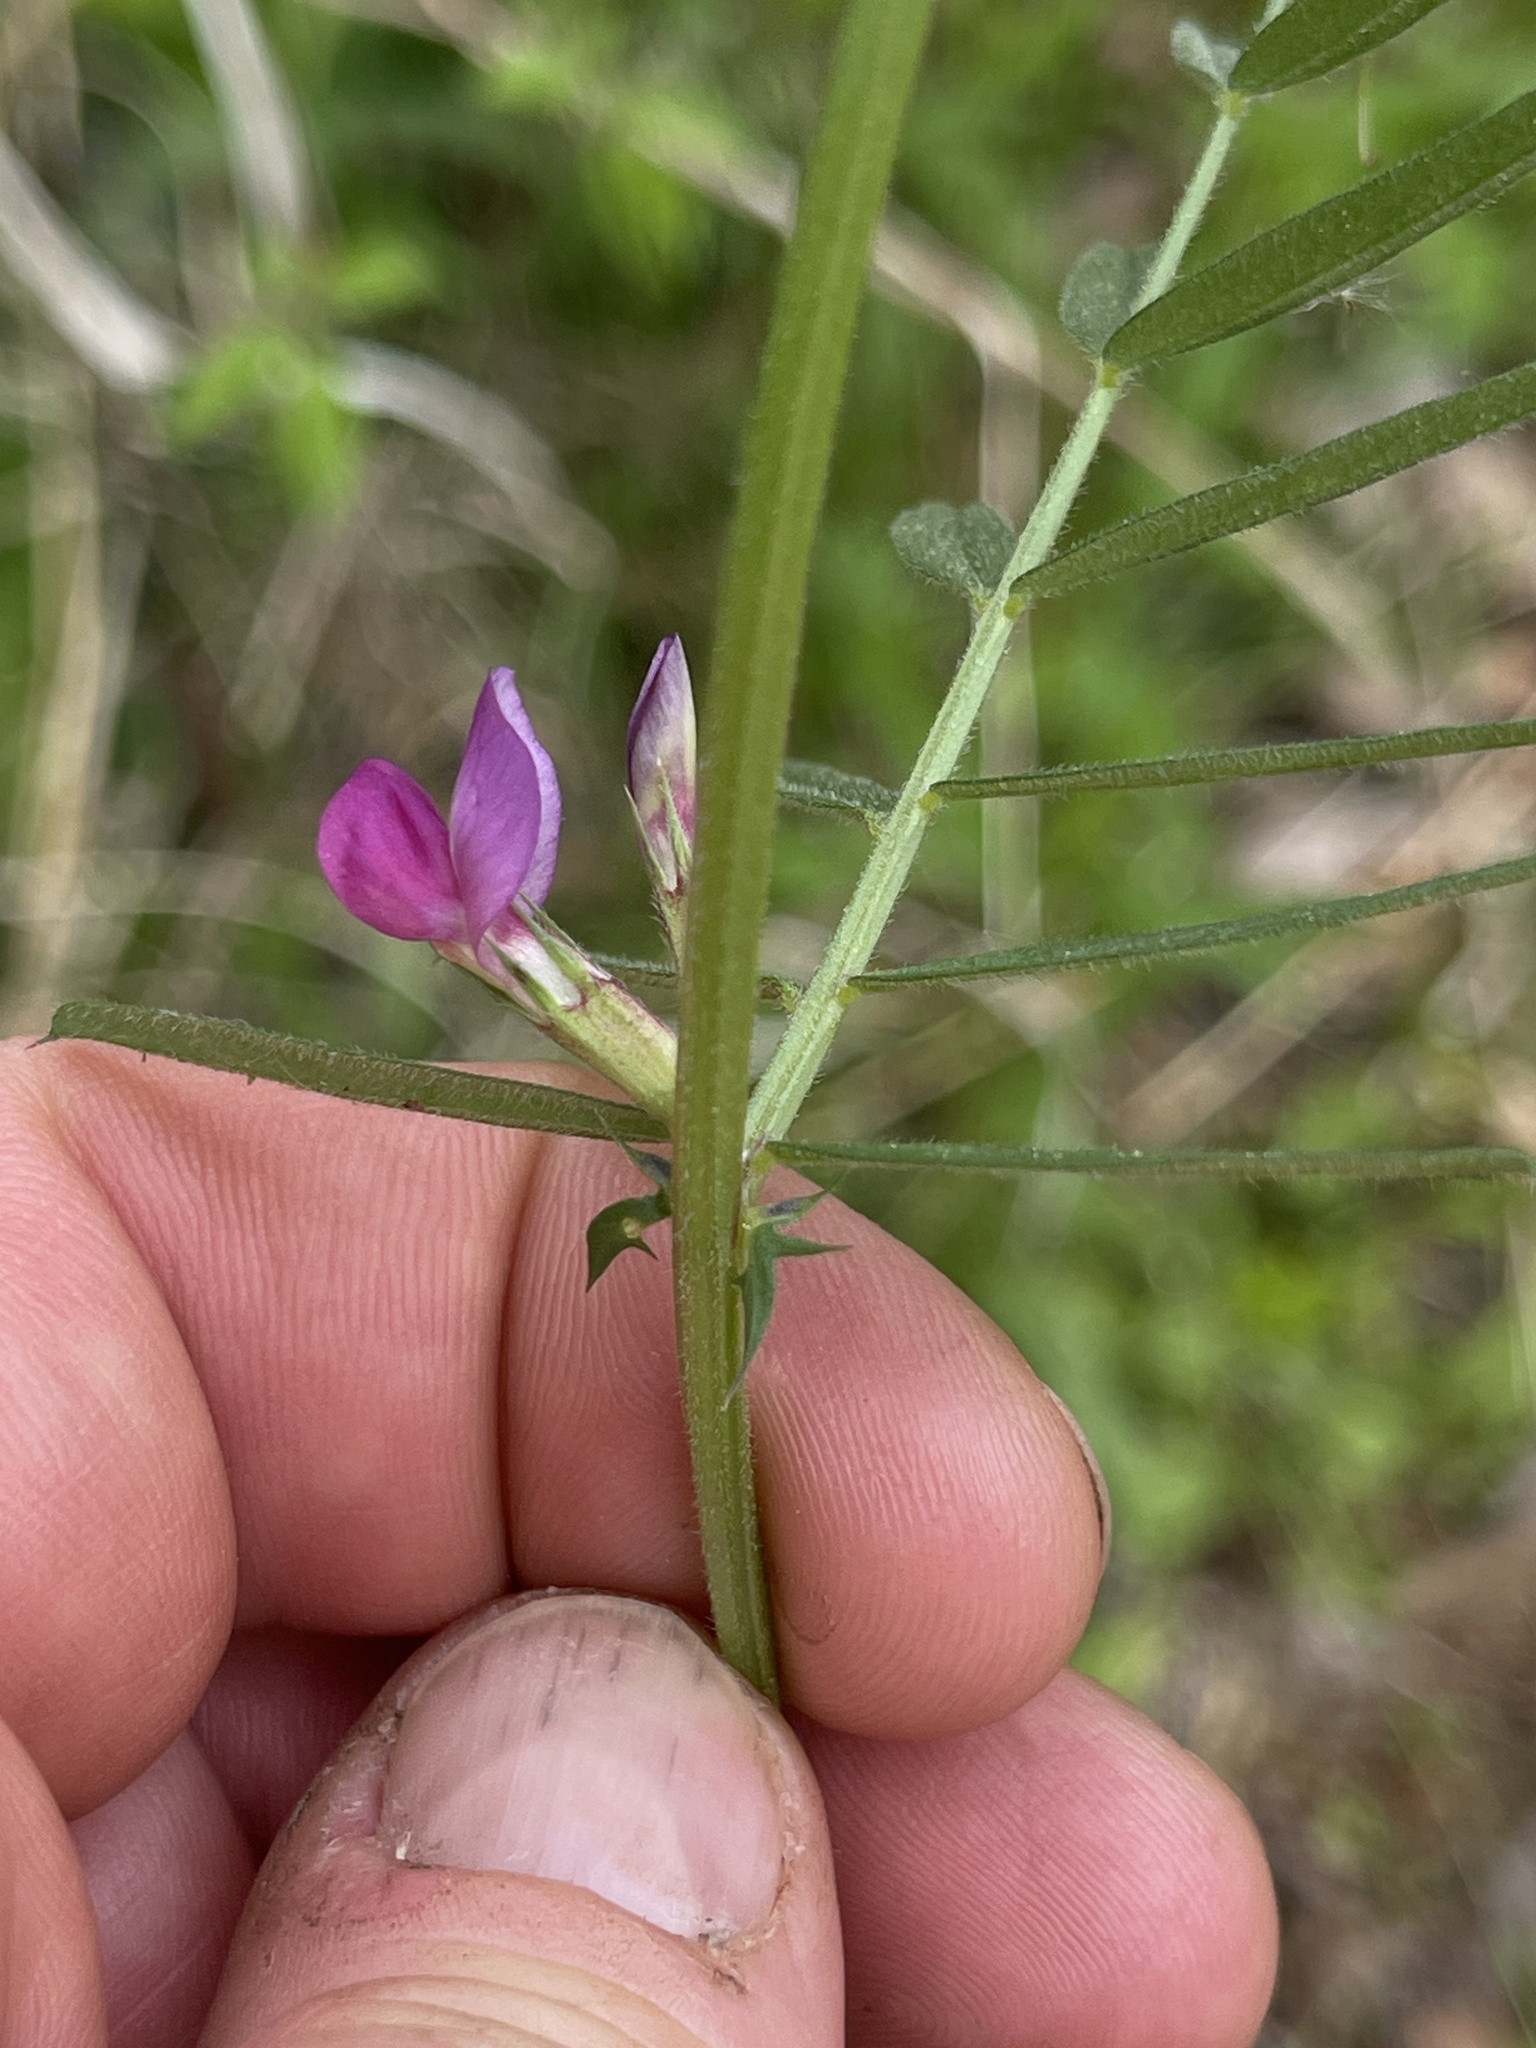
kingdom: Plantae
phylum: Tracheophyta
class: Magnoliopsida
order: Fabales
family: Fabaceae
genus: Vicia
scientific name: Vicia sativa
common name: Garden vetch
